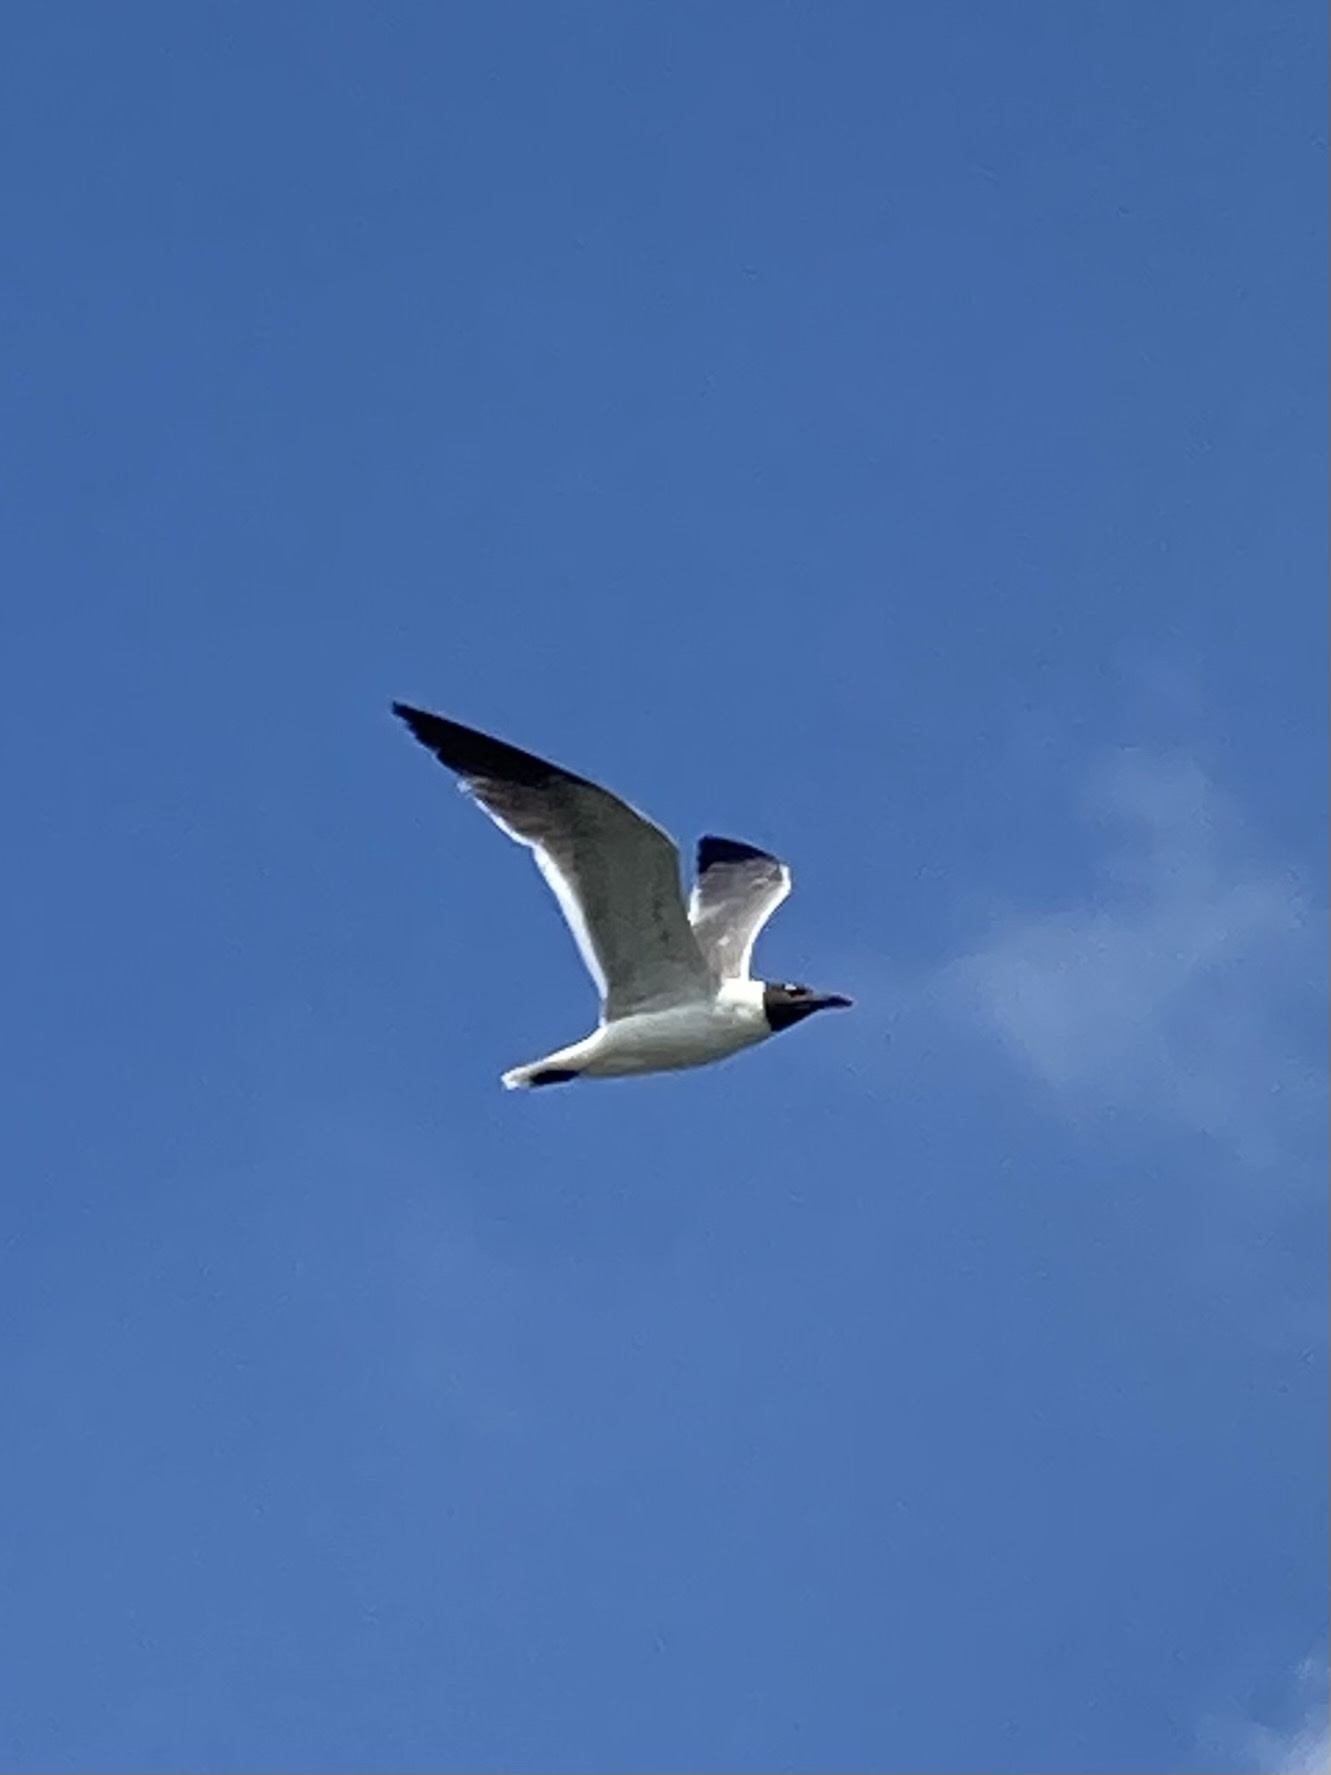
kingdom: Animalia
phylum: Chordata
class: Aves
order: Charadriiformes
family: Laridae
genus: Leucophaeus
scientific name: Leucophaeus atricilla
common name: Laughing gull
